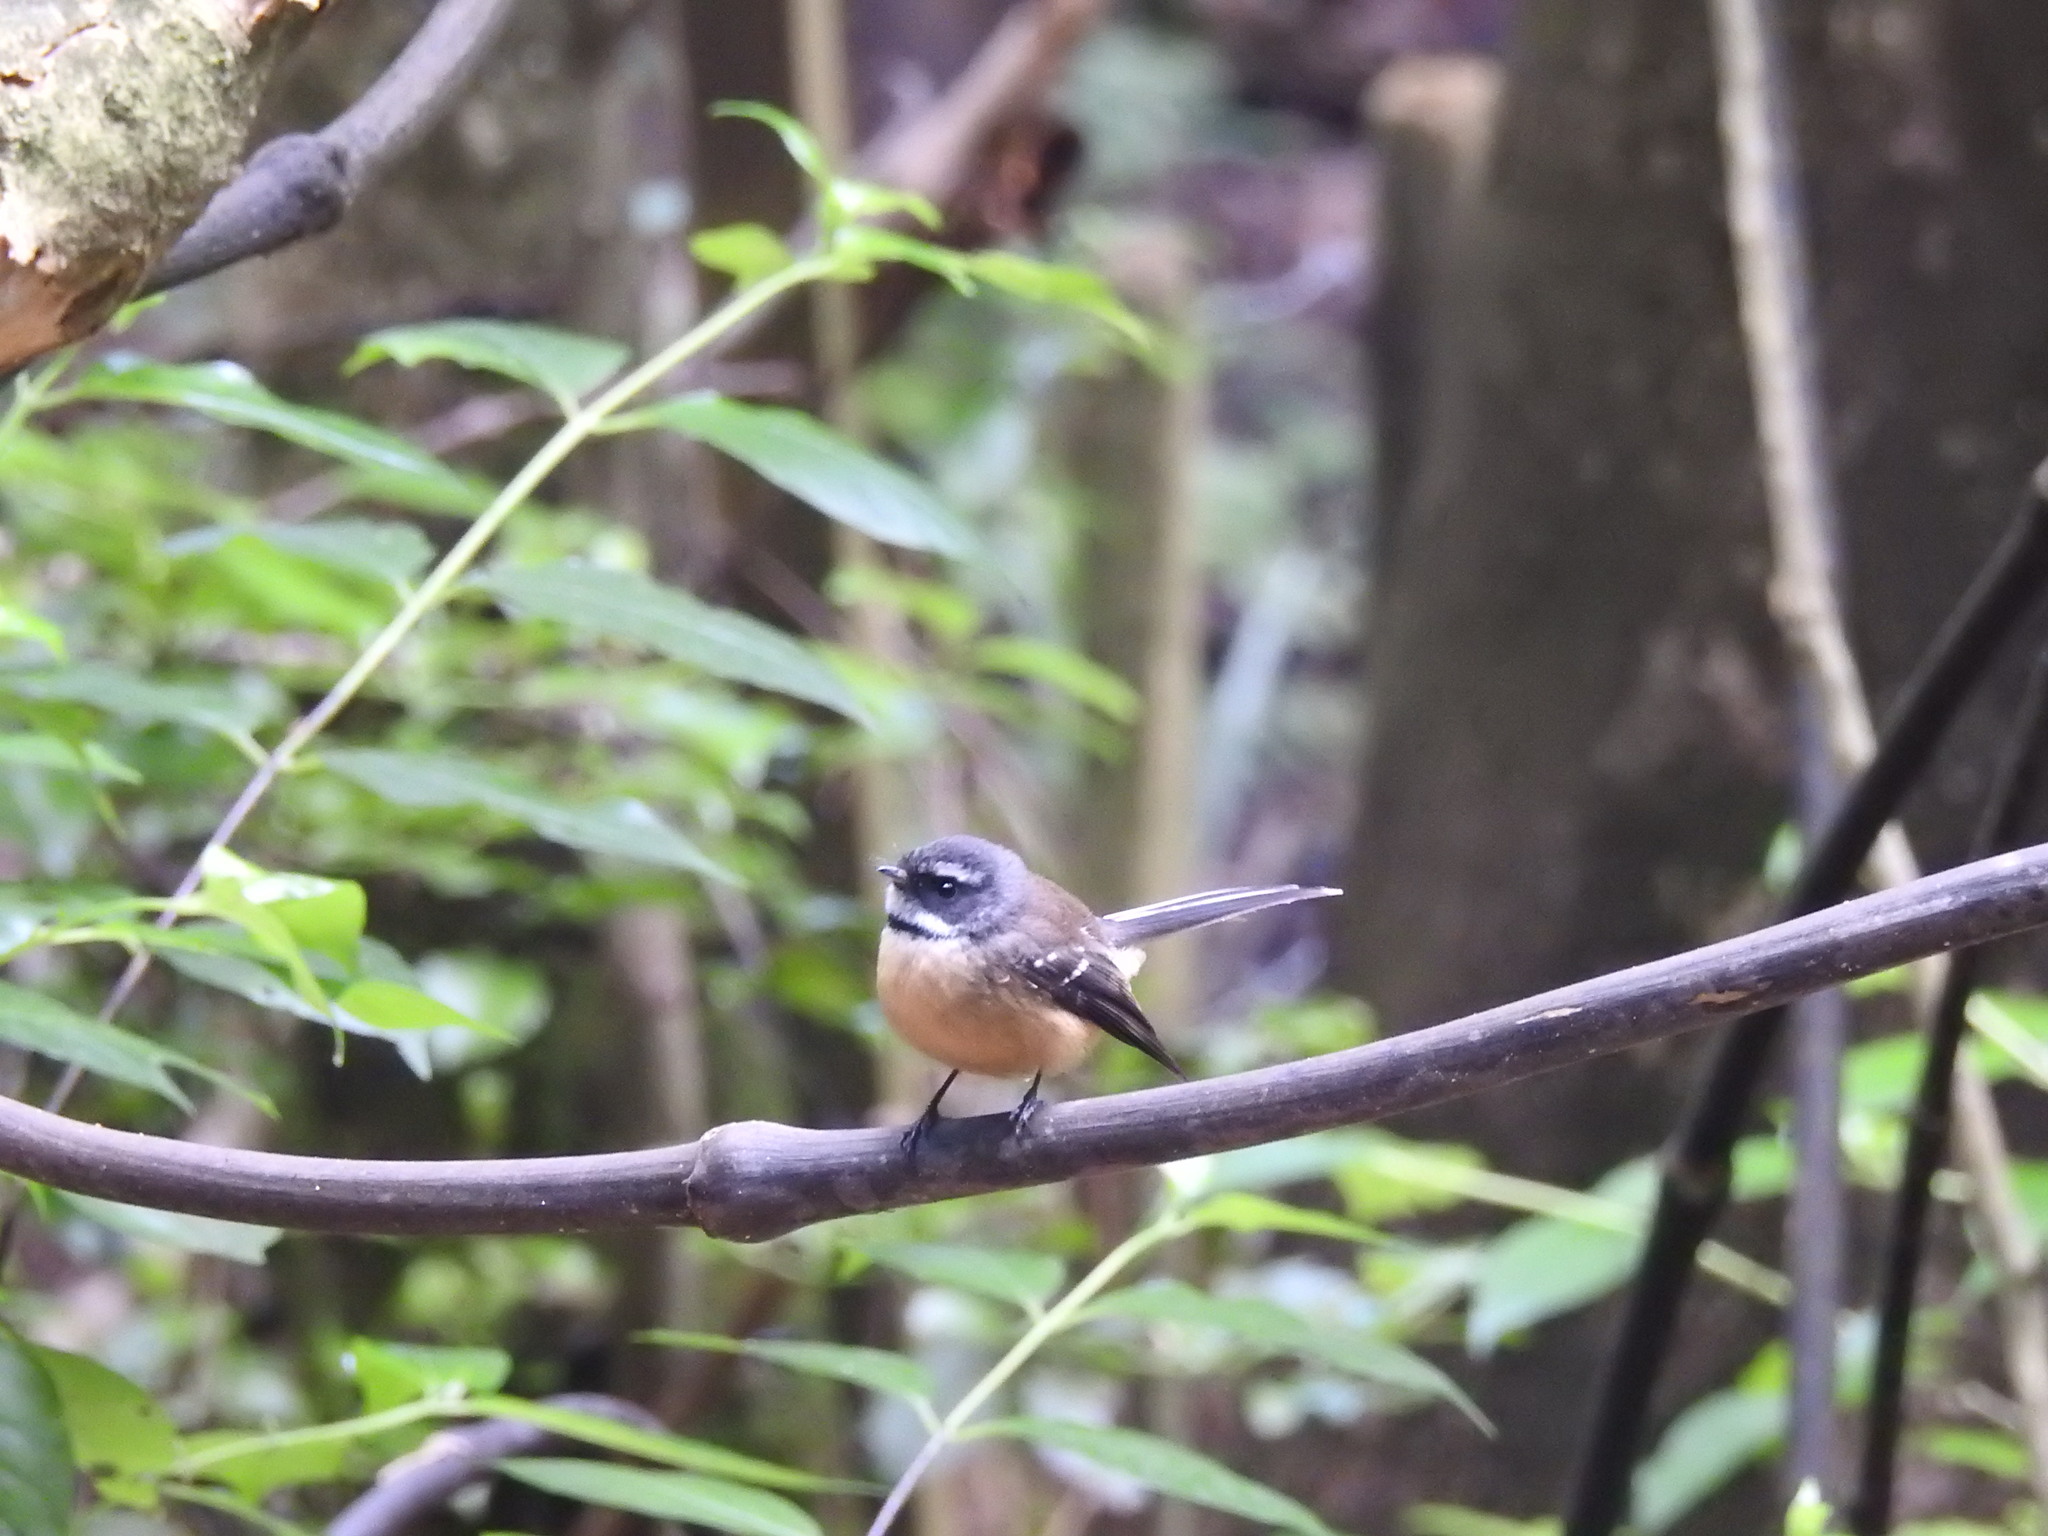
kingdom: Animalia
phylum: Chordata
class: Aves
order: Passeriformes
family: Rhipiduridae
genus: Rhipidura
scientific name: Rhipidura fuliginosa
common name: New zealand fantail
